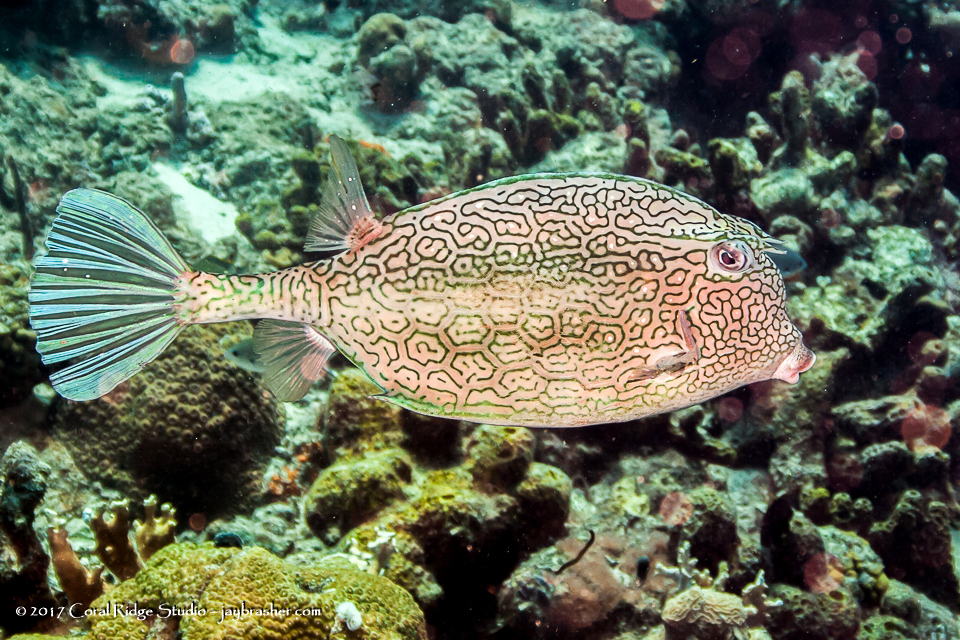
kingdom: Animalia
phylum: Chordata
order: Tetraodontiformes
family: Ostraciidae
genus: Acanthostracion
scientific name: Acanthostracion polygonius
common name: Honeycomb cowfish
